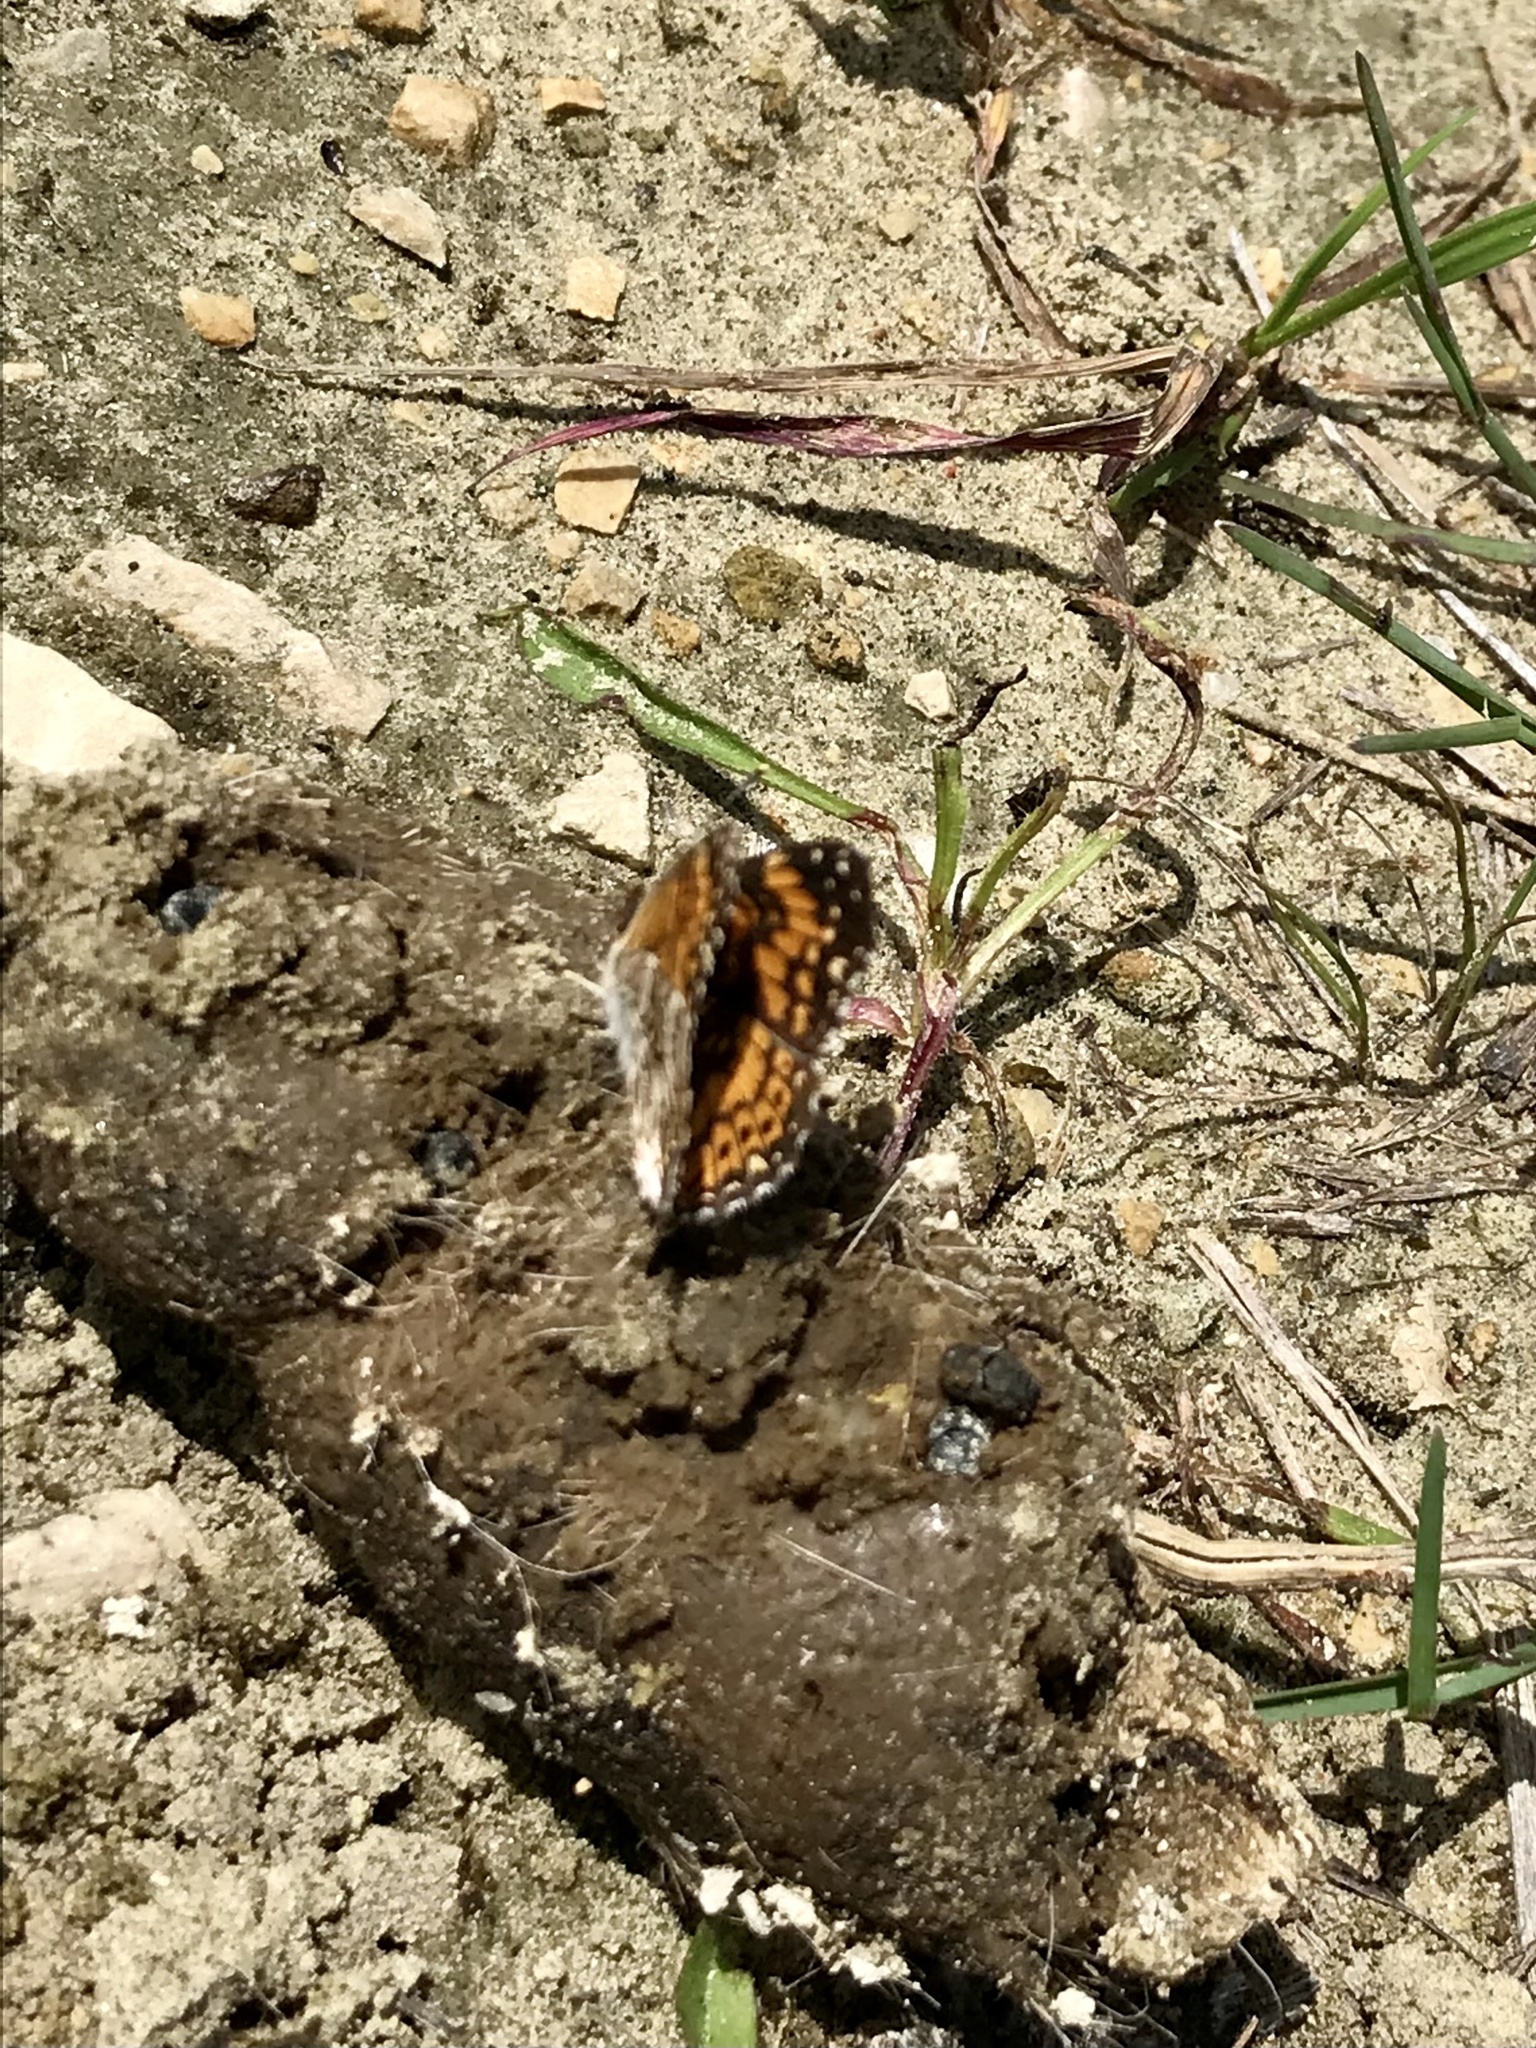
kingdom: Animalia
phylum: Arthropoda
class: Insecta
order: Lepidoptera
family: Nymphalidae
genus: Chlosyne
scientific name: Chlosyne gorgone
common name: Gorgone checkerspot
